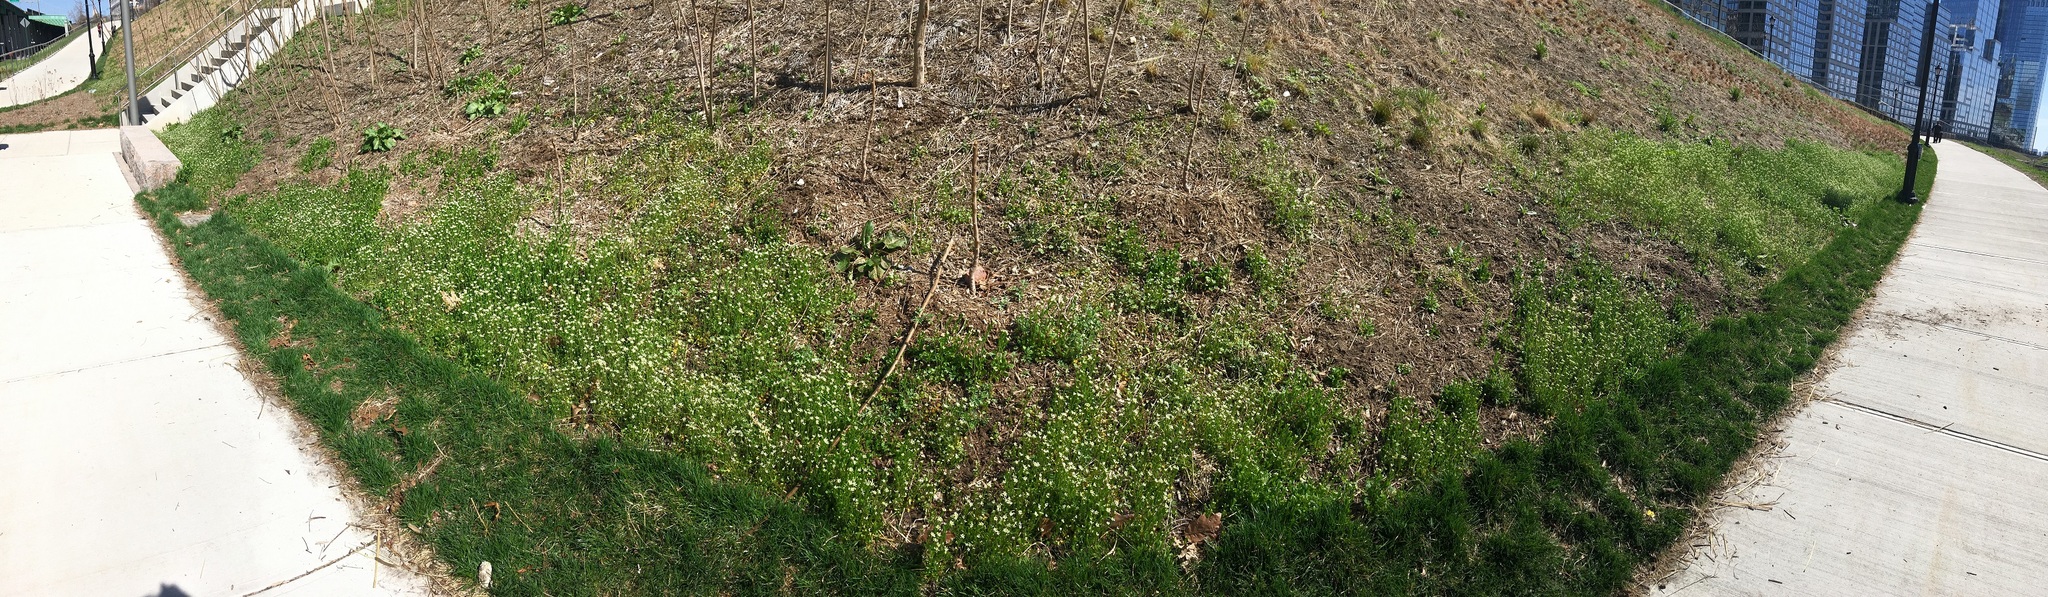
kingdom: Plantae
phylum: Tracheophyta
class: Magnoliopsida
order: Brassicales
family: Brassicaceae
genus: Mummenhoffia
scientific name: Mummenhoffia alliacea
